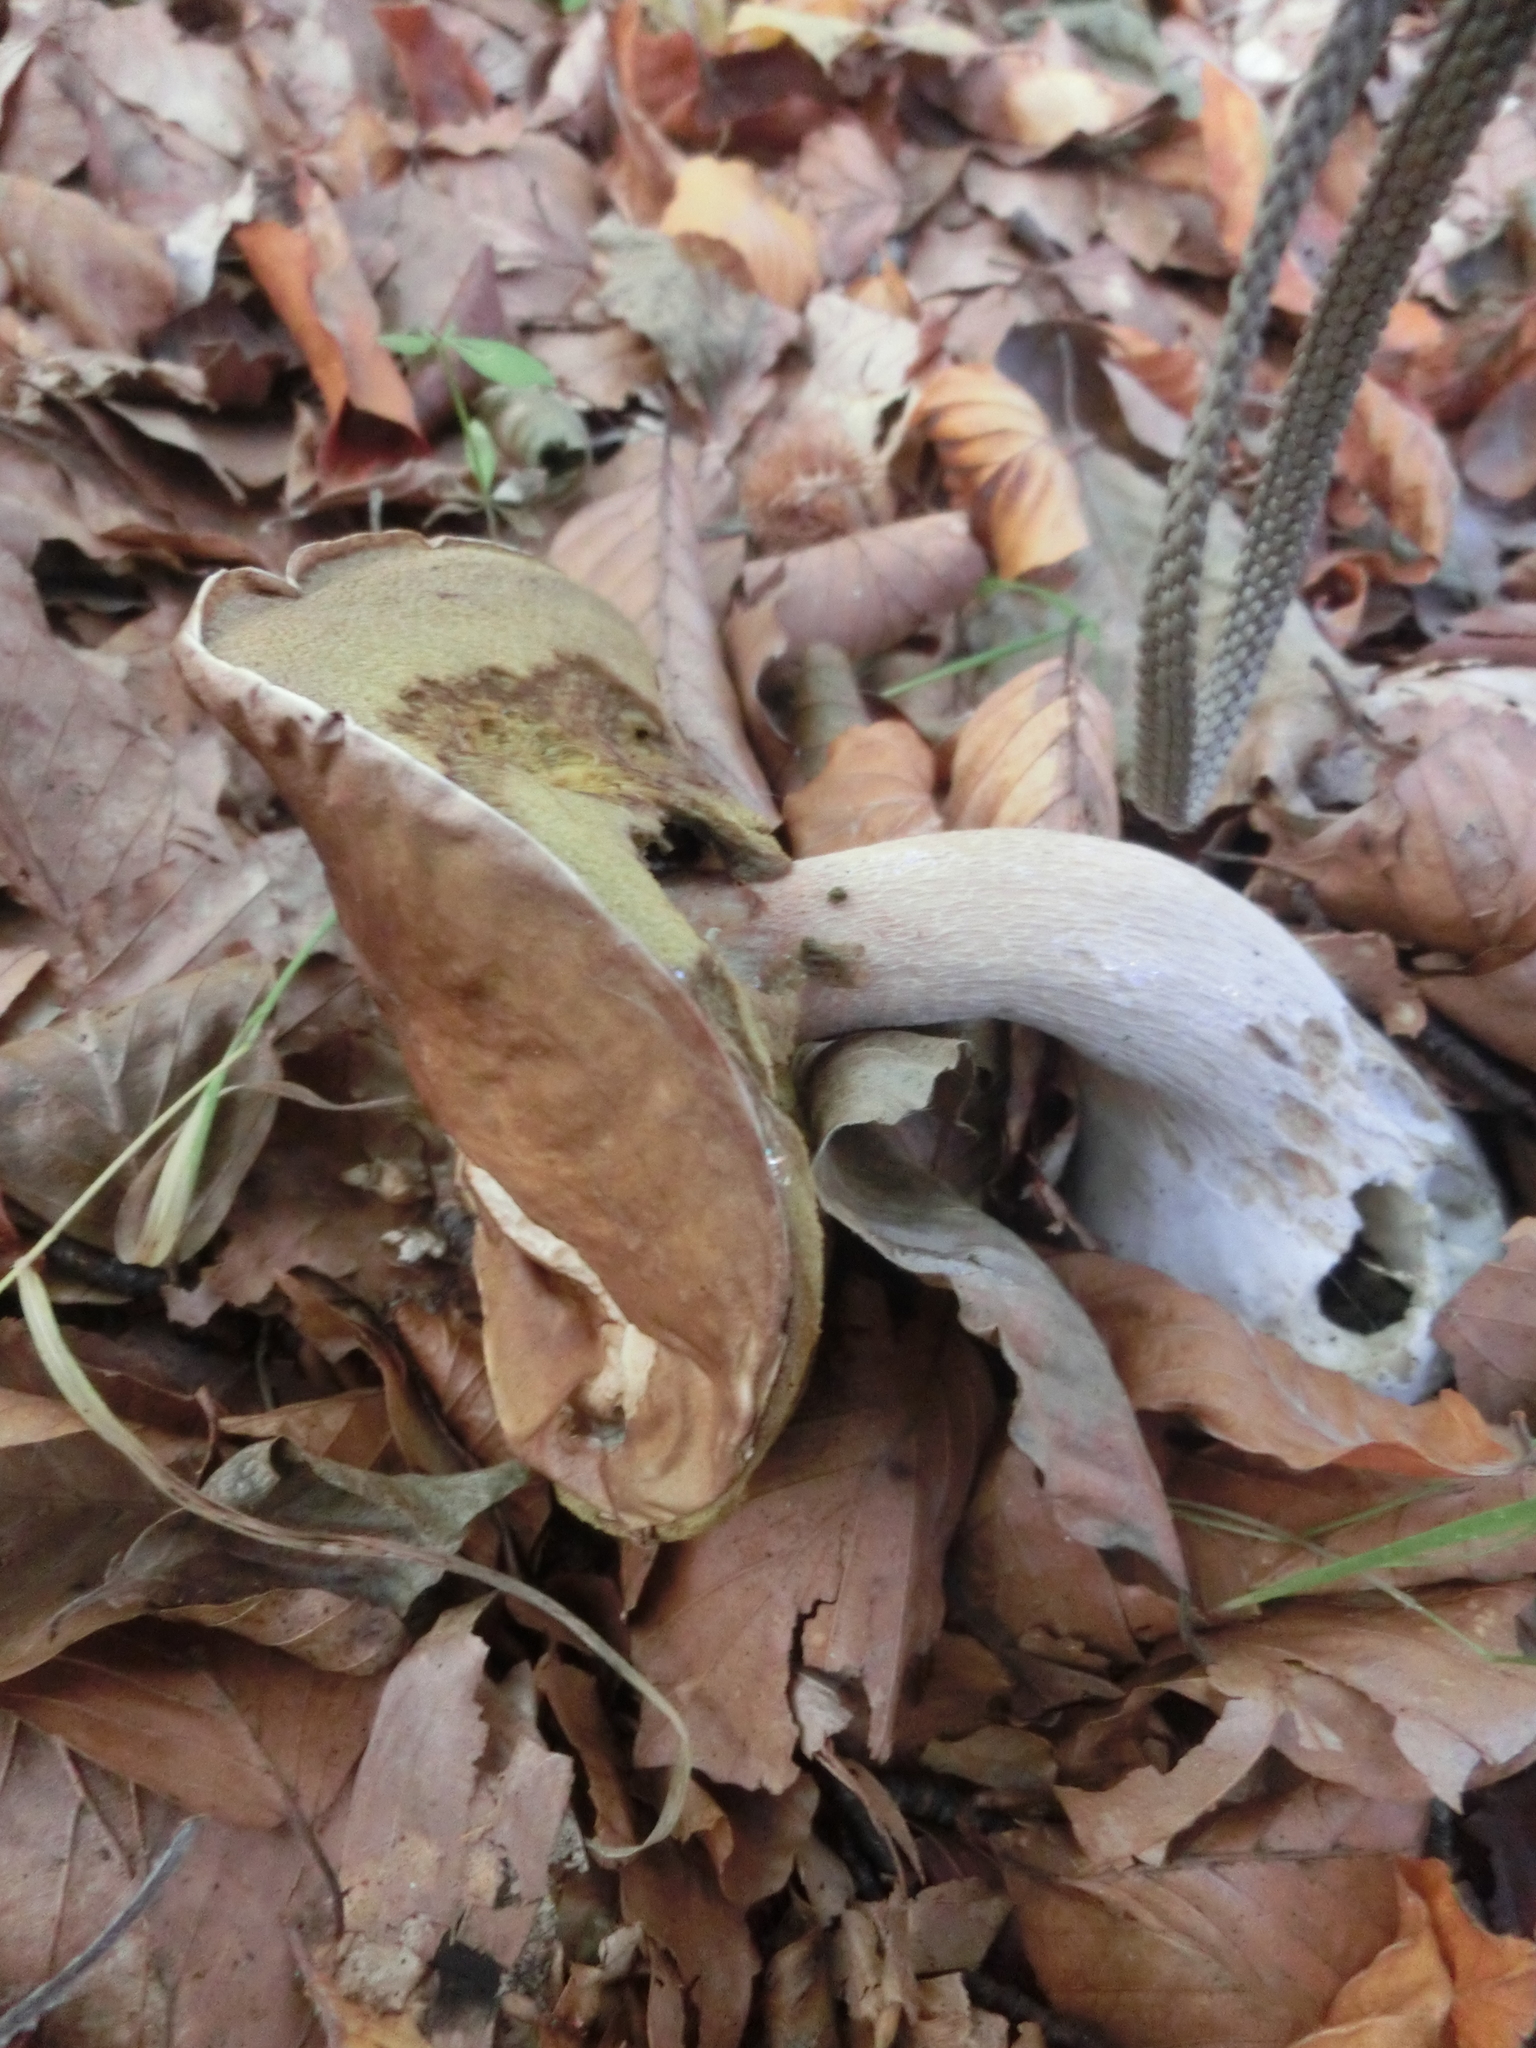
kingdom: Fungi
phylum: Basidiomycota
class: Agaricomycetes
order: Boletales
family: Boletaceae
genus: Boletus
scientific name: Boletus edulis
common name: Cep
